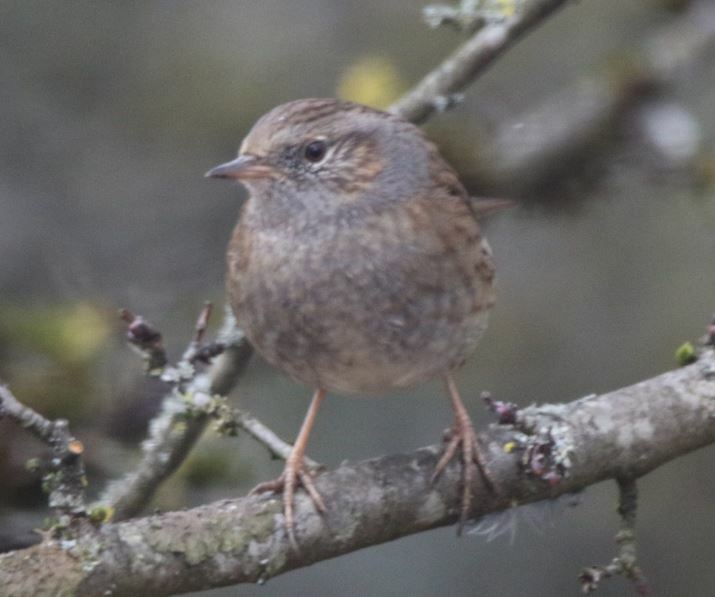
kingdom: Animalia
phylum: Chordata
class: Aves
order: Passeriformes
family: Prunellidae
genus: Prunella
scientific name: Prunella modularis
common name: Dunnock
